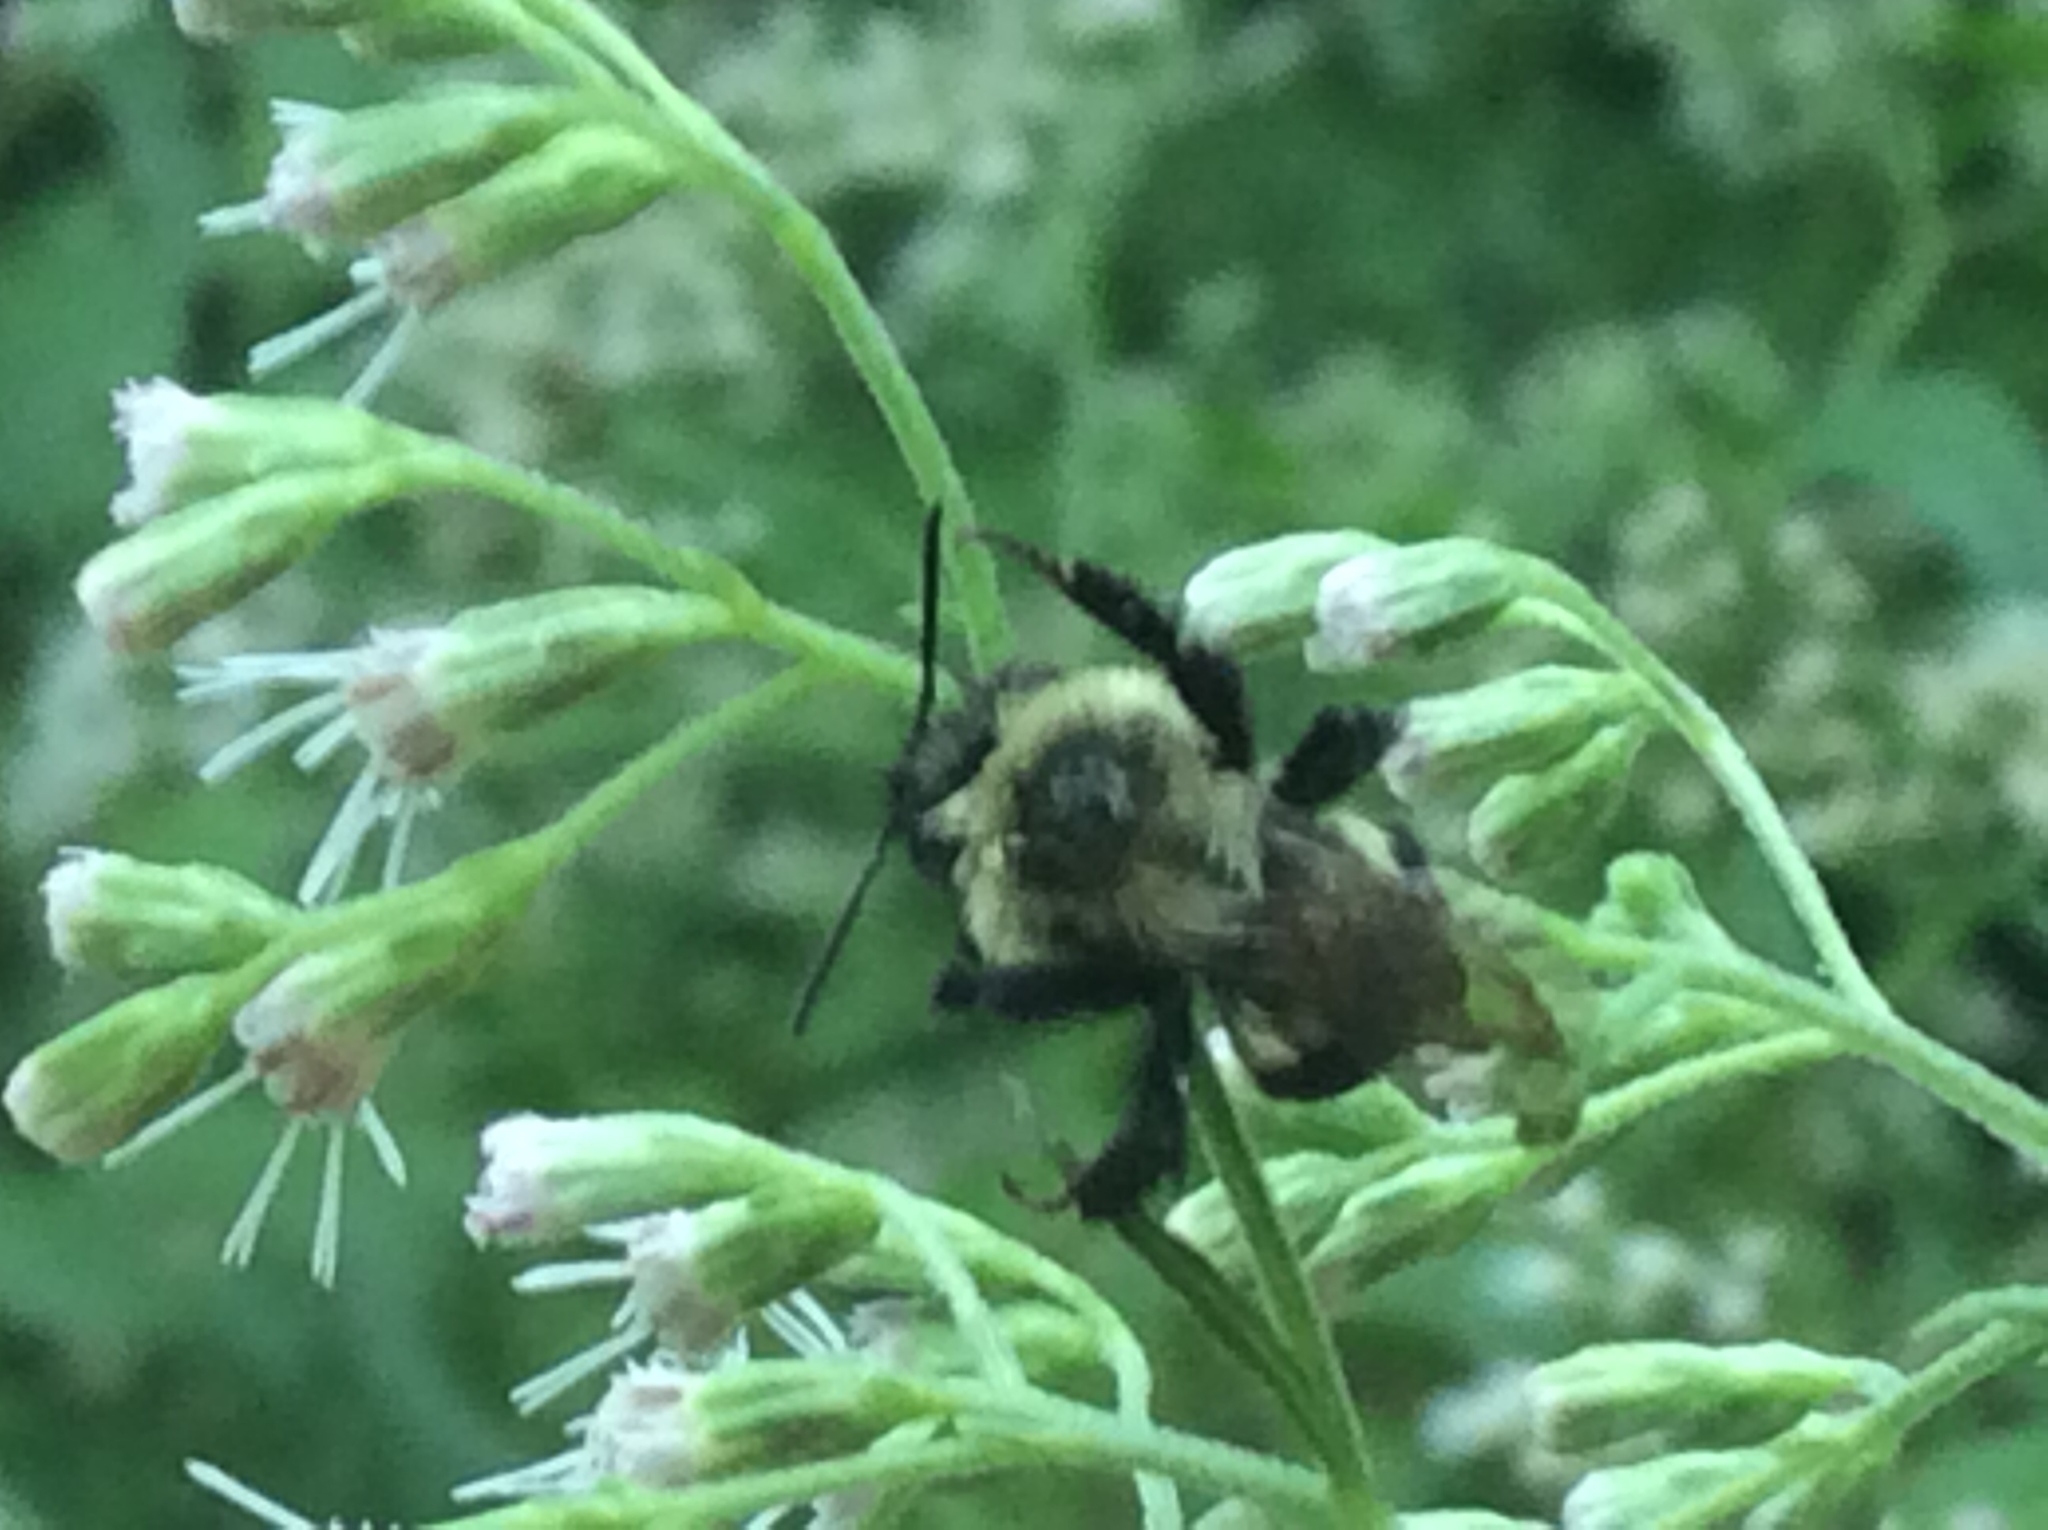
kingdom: Animalia
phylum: Arthropoda
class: Insecta
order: Hymenoptera
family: Apidae
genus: Bombus
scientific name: Bombus impatiens
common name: Common eastern bumble bee
